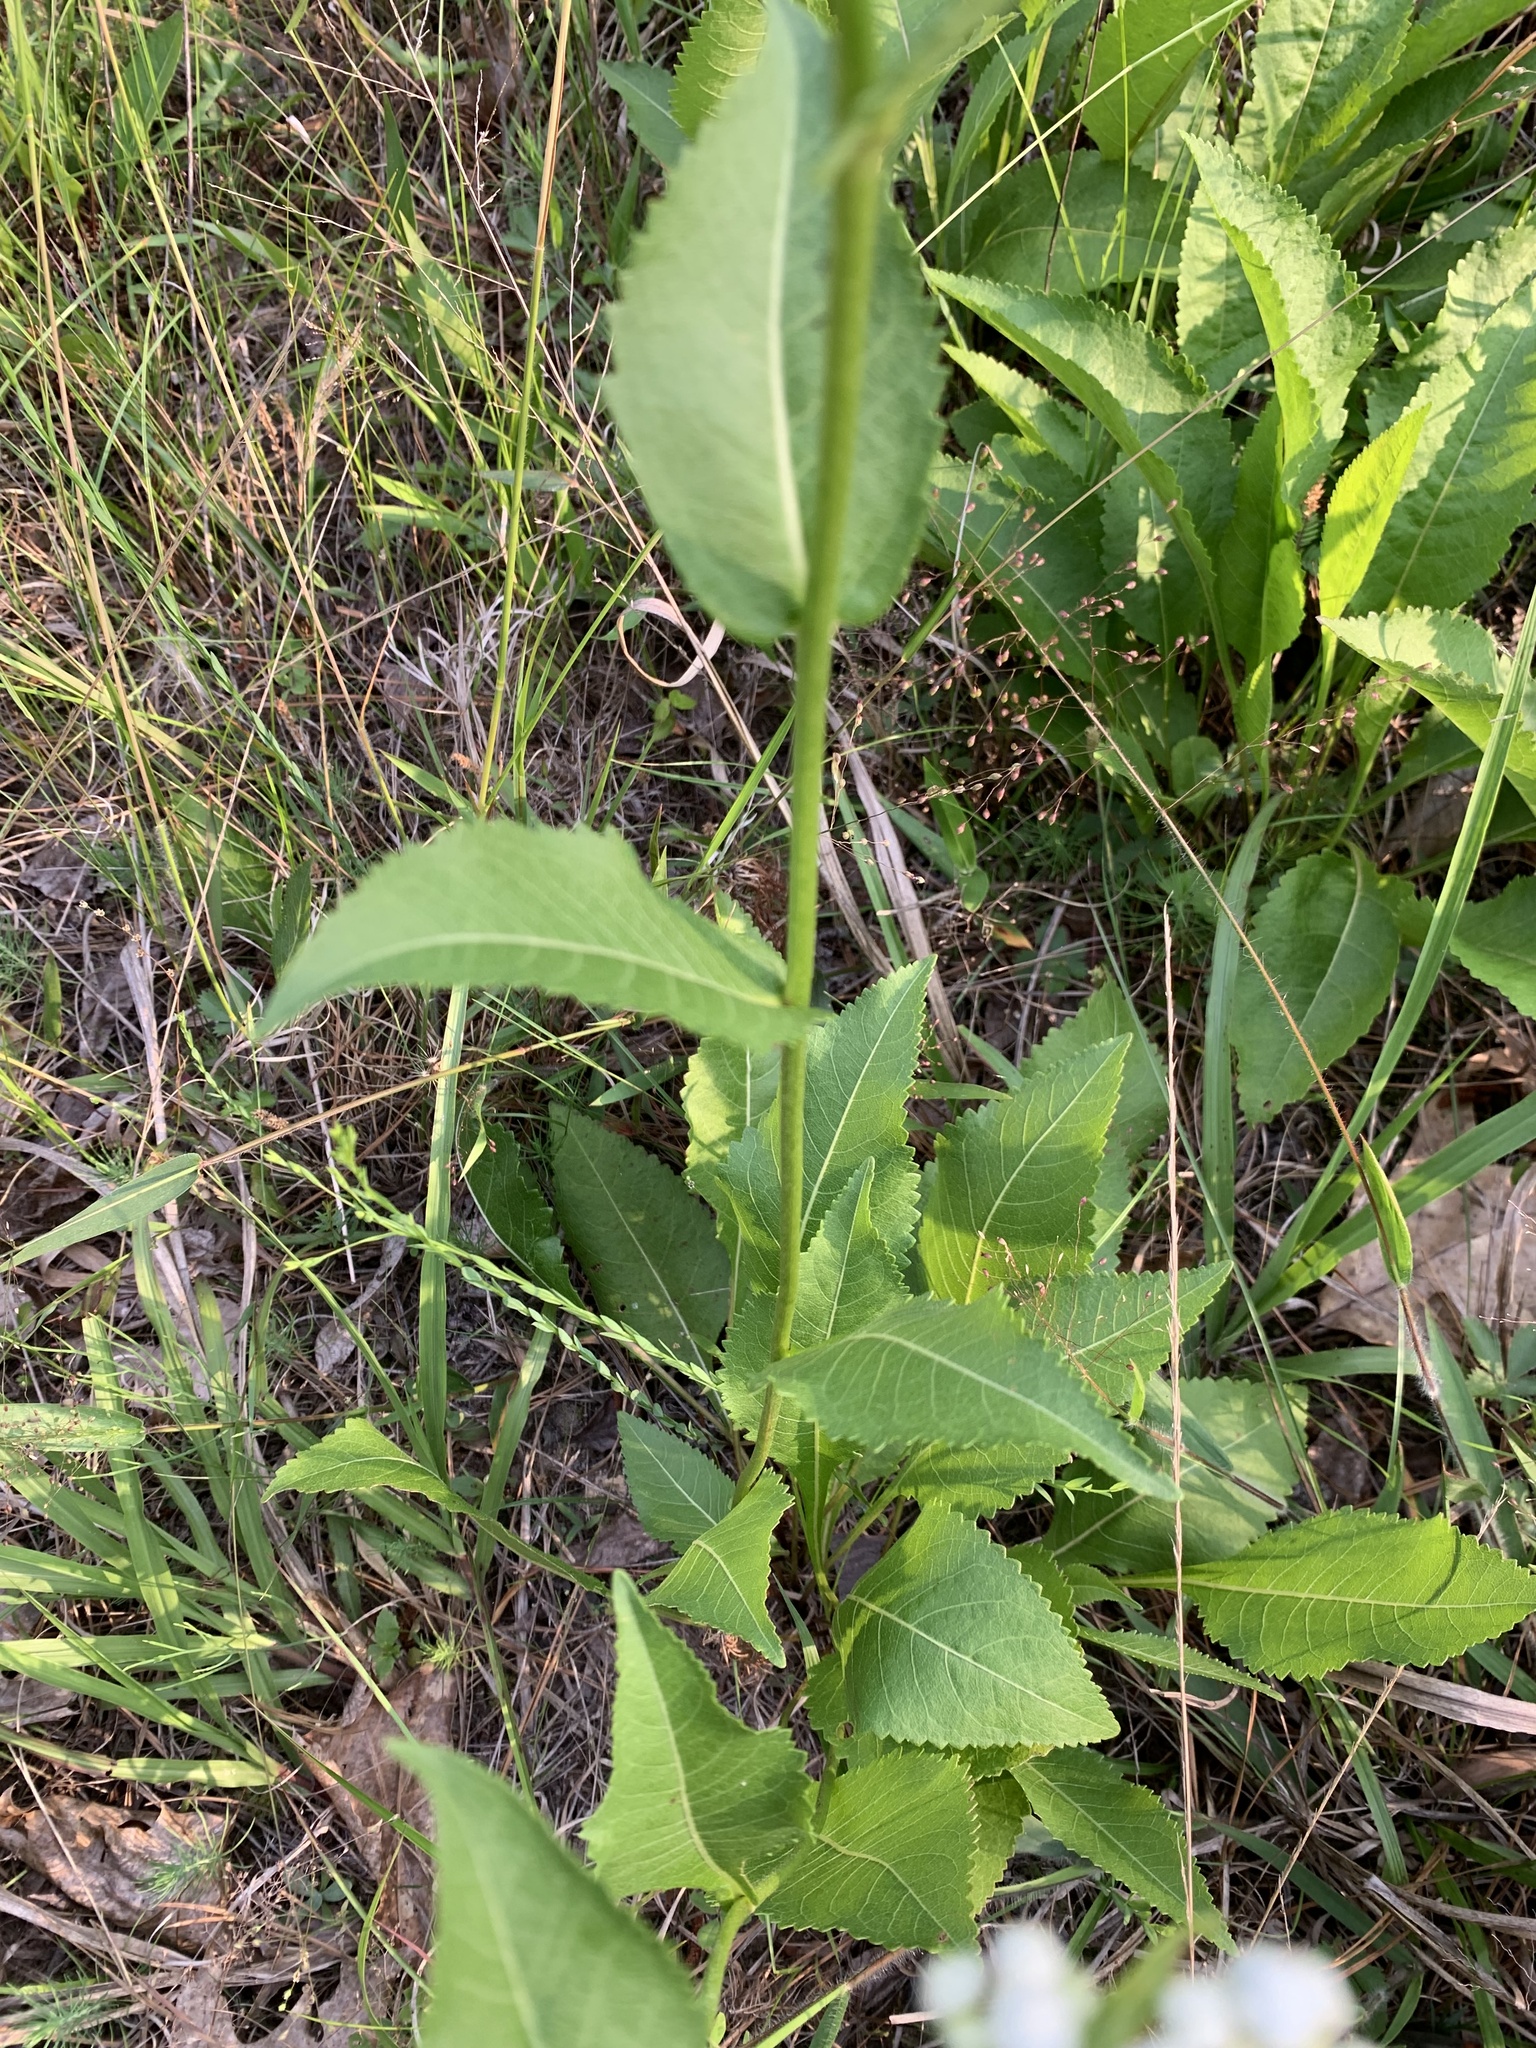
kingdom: Plantae
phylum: Tracheophyta
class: Magnoliopsida
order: Asterales
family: Asteraceae
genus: Parthenium
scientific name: Parthenium integrifolium
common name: American feverfew
